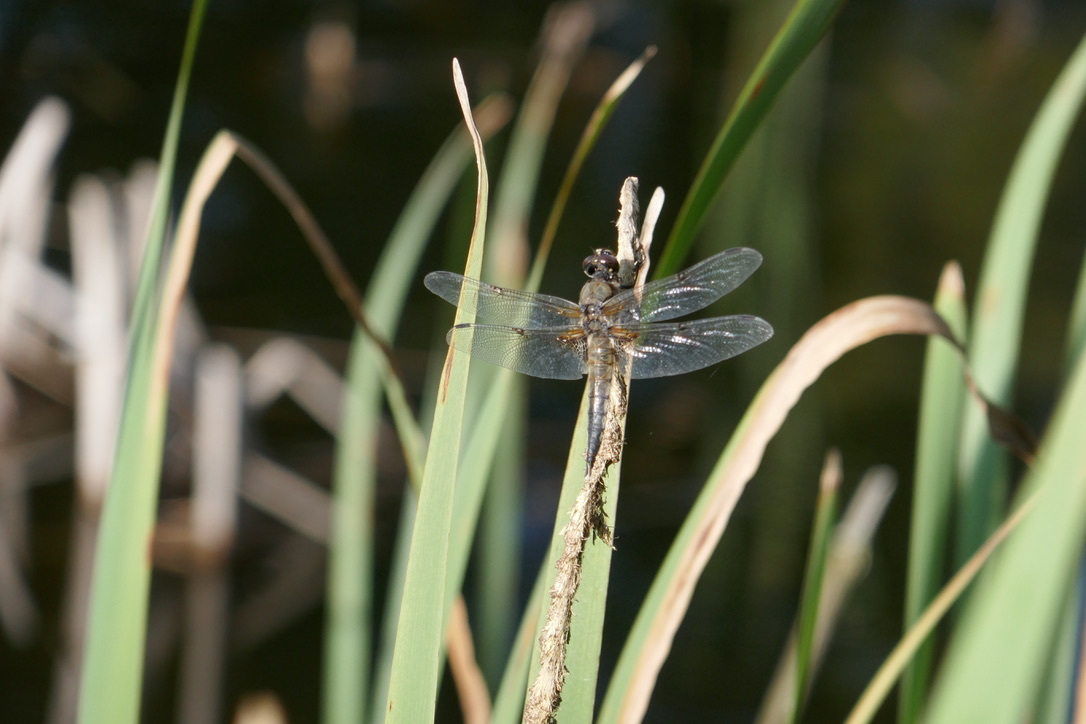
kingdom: Animalia
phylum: Arthropoda
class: Insecta
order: Odonata
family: Libellulidae
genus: Libellula
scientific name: Libellula quadrimaculata
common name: Four-spotted chaser
